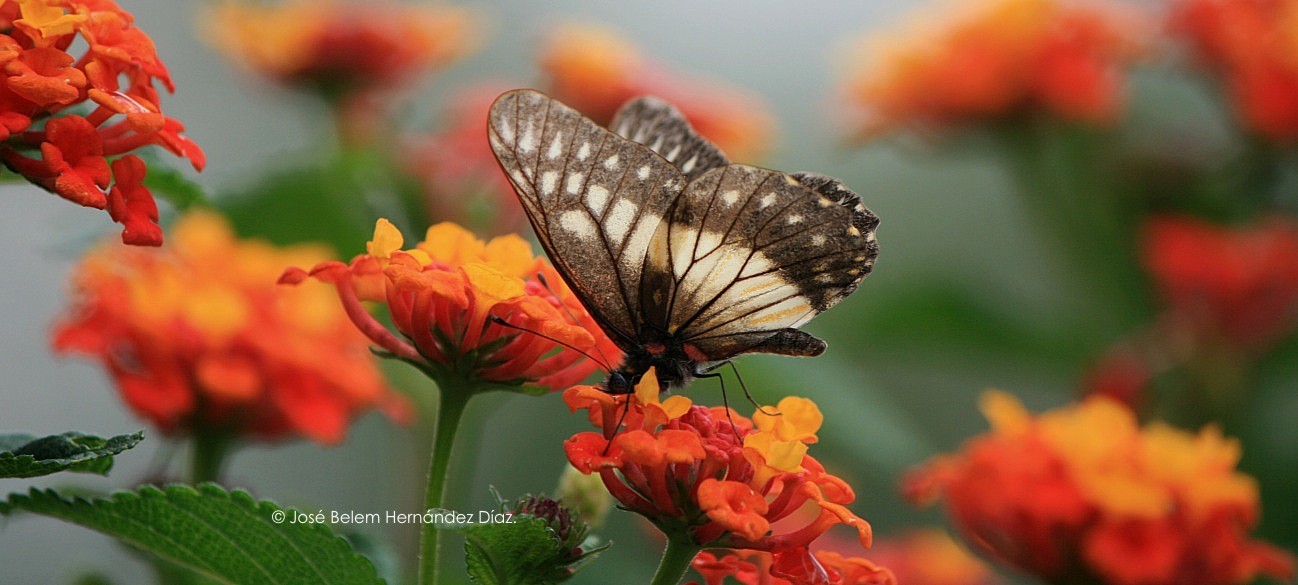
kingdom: Animalia
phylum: Arthropoda
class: Insecta
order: Lepidoptera
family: Pieridae
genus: Archonias
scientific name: Archonias nimbice
